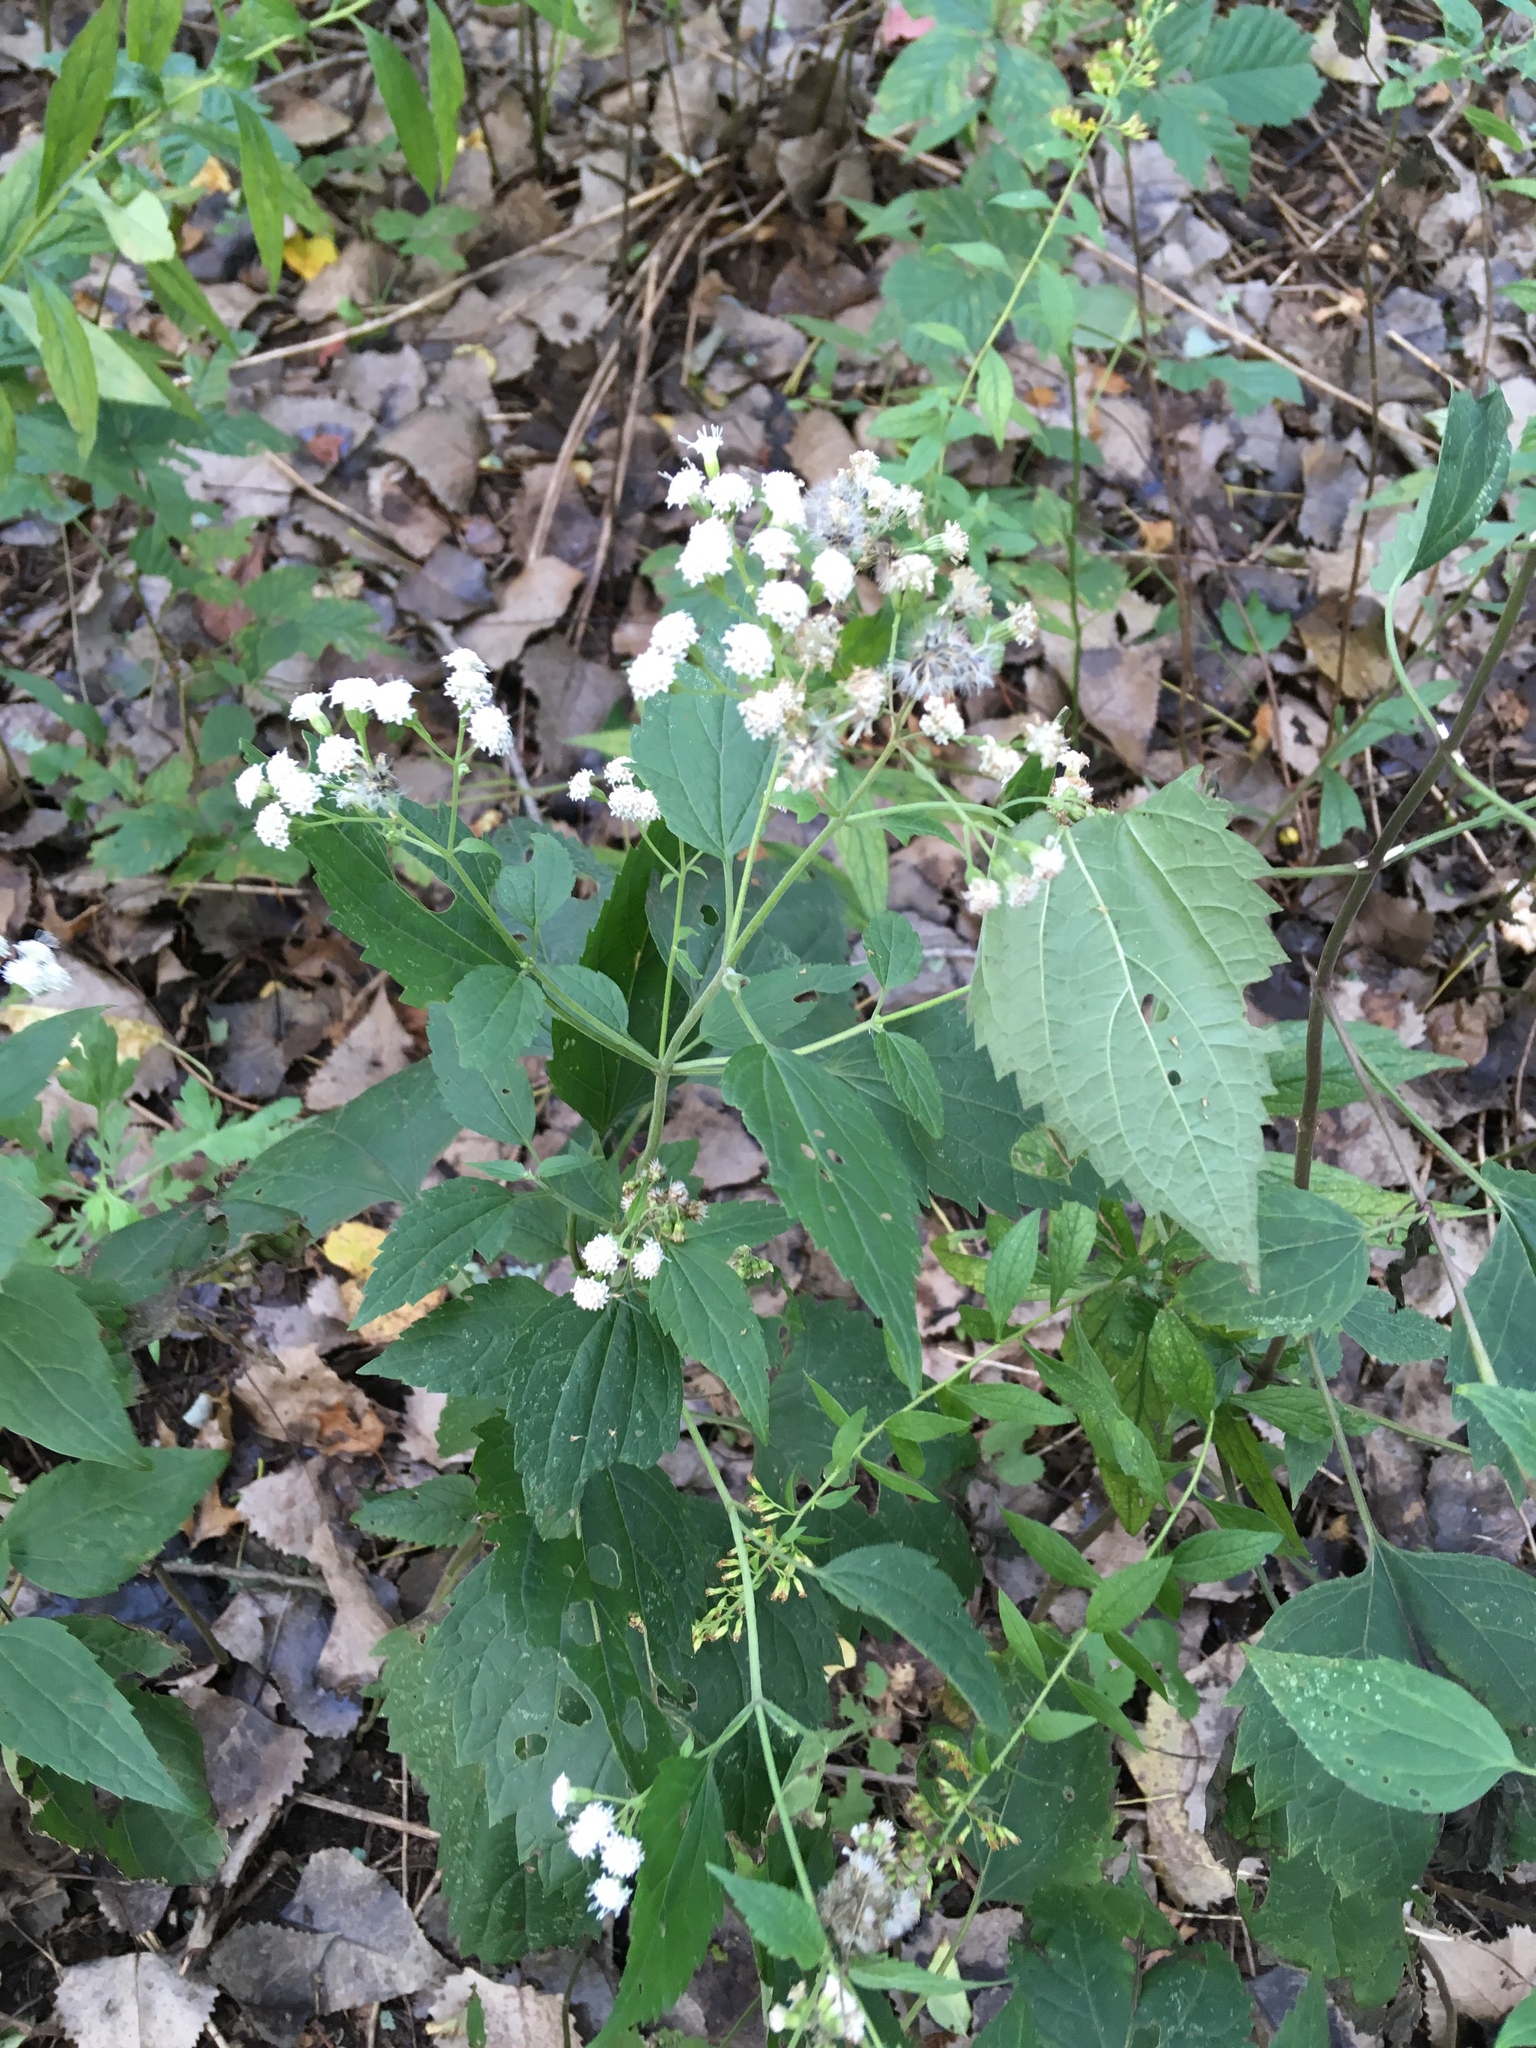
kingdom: Plantae
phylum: Tracheophyta
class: Magnoliopsida
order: Asterales
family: Asteraceae
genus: Ageratina
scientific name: Ageratina altissima
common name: White snakeroot
